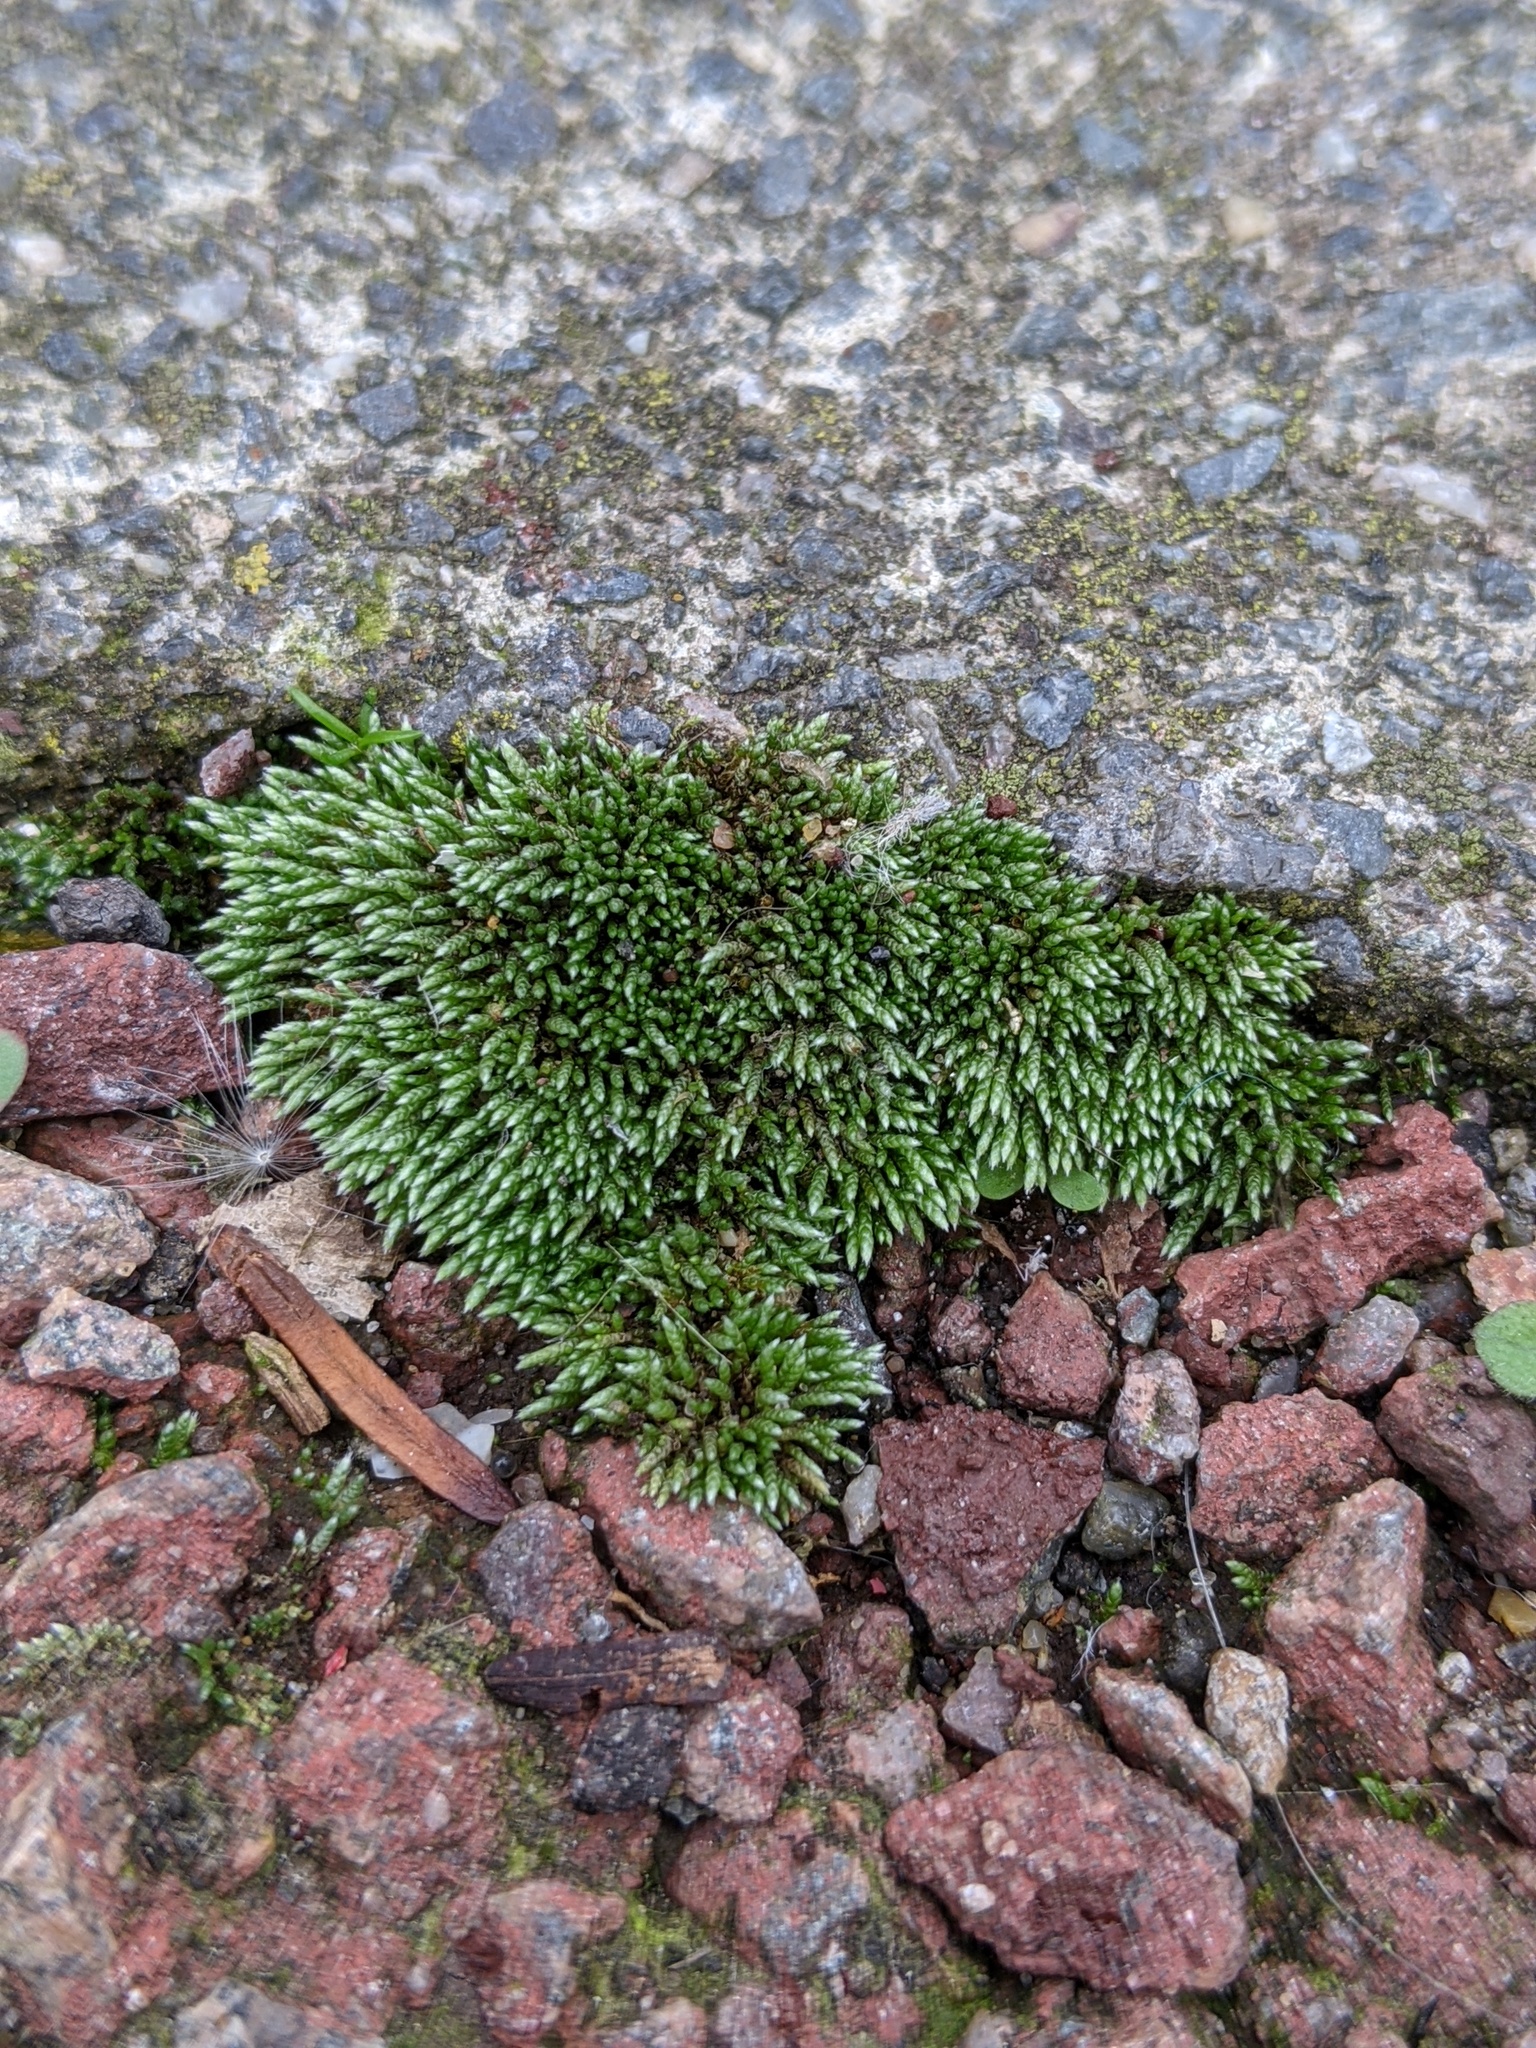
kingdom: Plantae
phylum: Bryophyta
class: Bryopsida
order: Bryales
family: Bryaceae
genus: Bryum
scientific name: Bryum argenteum
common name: Silver-moss
